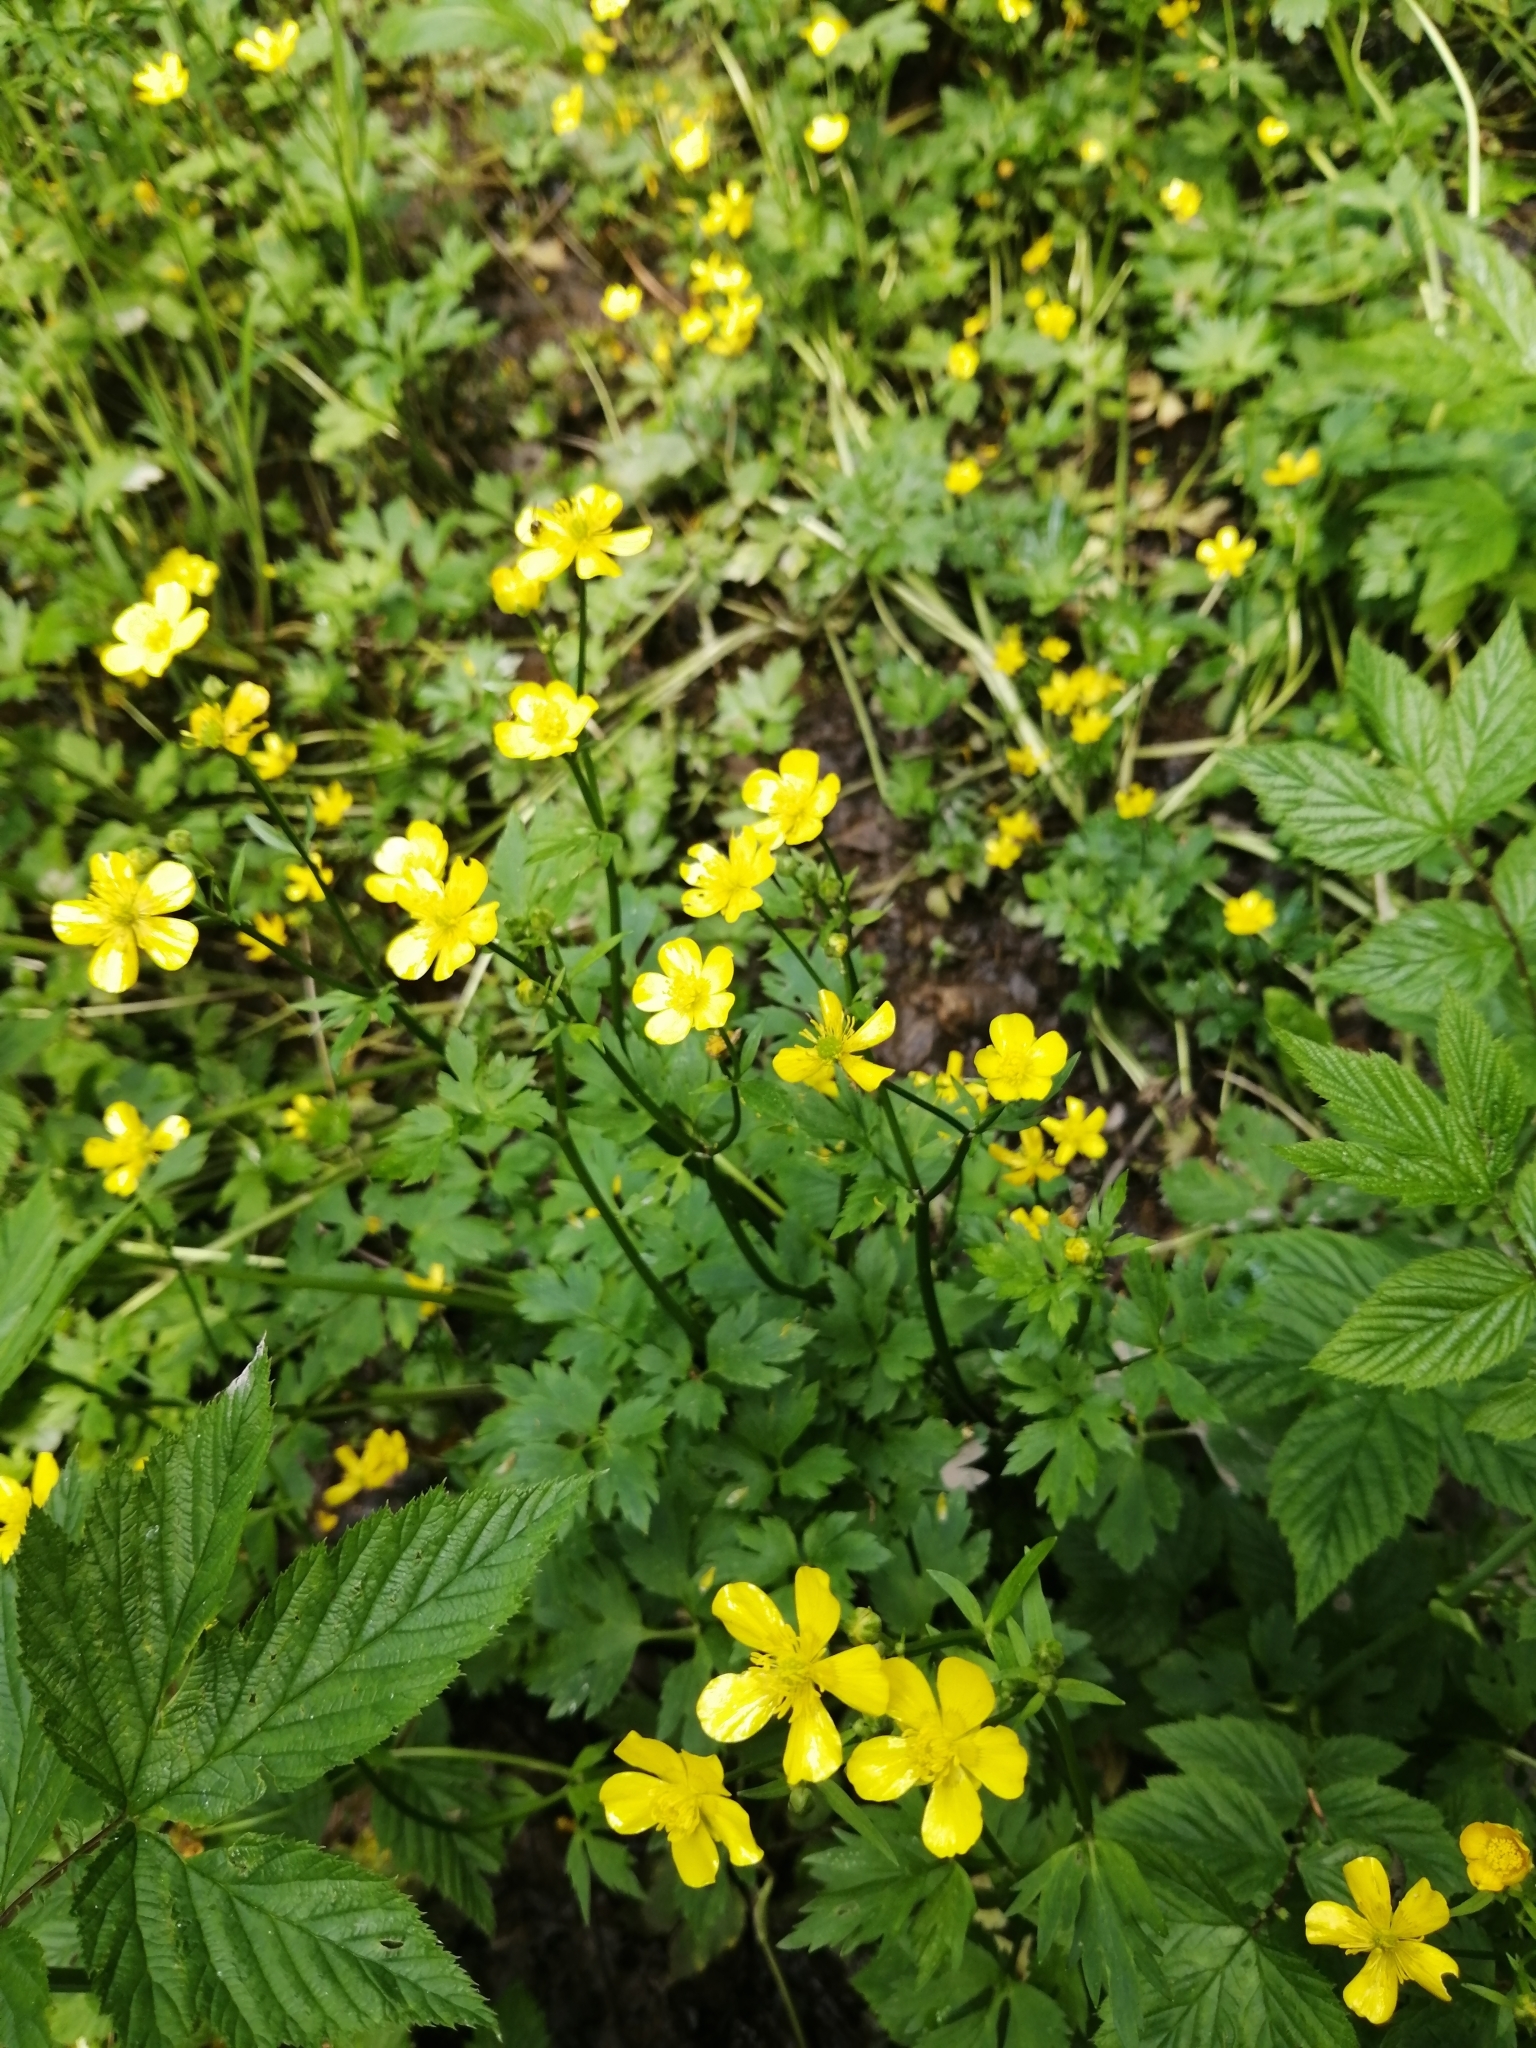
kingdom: Plantae
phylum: Tracheophyta
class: Magnoliopsida
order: Ranunculales
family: Ranunculaceae
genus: Ranunculus
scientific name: Ranunculus repens
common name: Creeping buttercup
